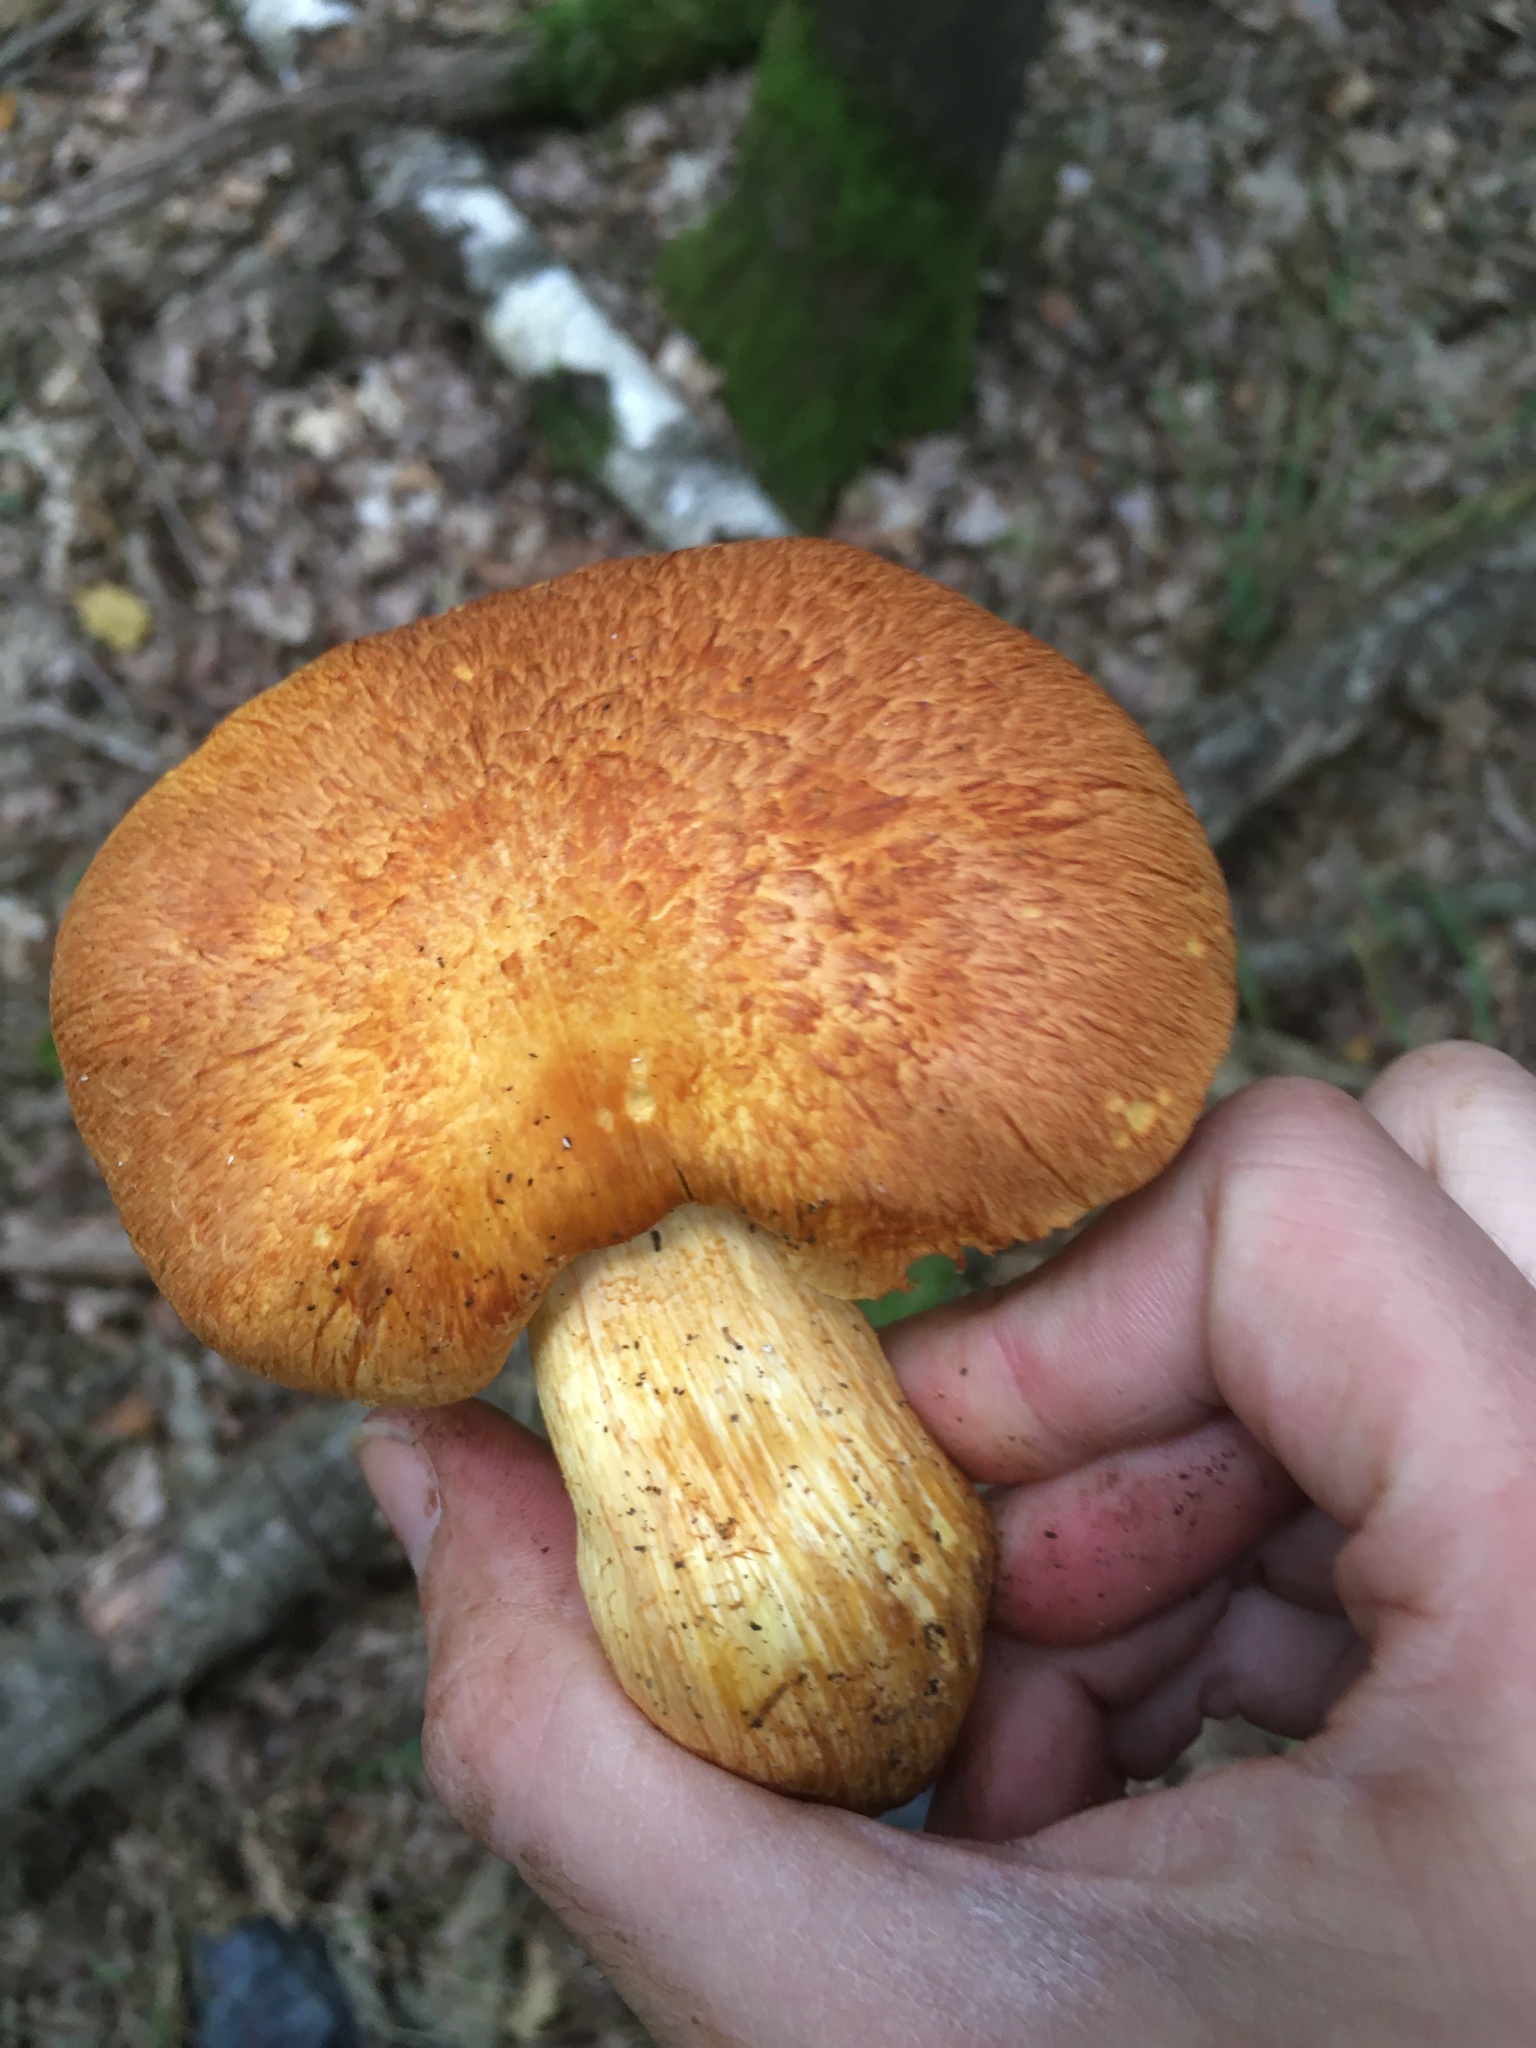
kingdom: Fungi
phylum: Basidiomycota
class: Agaricomycetes
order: Agaricales
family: Hymenogastraceae
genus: Gymnopilus
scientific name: Gymnopilus junonius
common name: Spectacular rustgill
